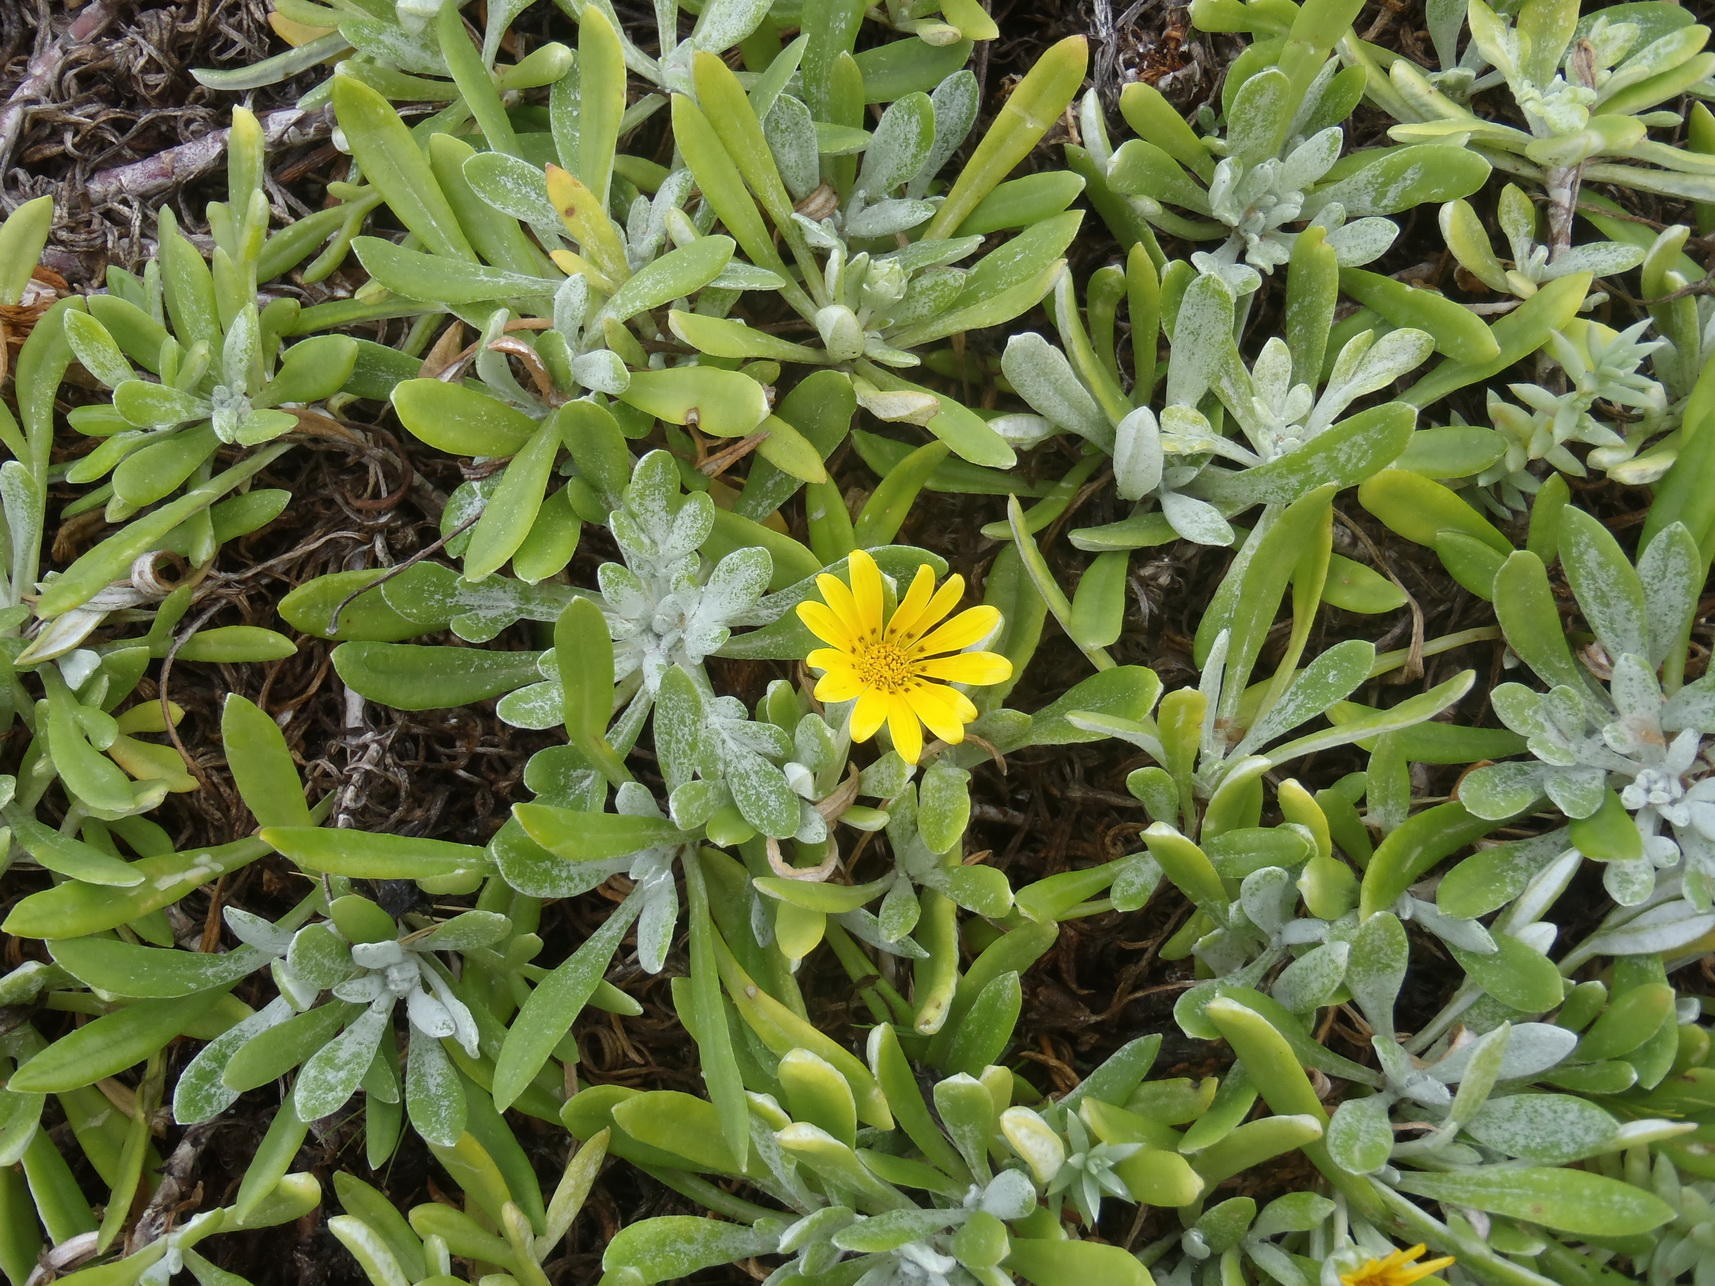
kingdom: Plantae
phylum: Tracheophyta
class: Magnoliopsida
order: Asterales
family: Asteraceae
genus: Gazania
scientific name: Gazania rigens
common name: Treasureflower
